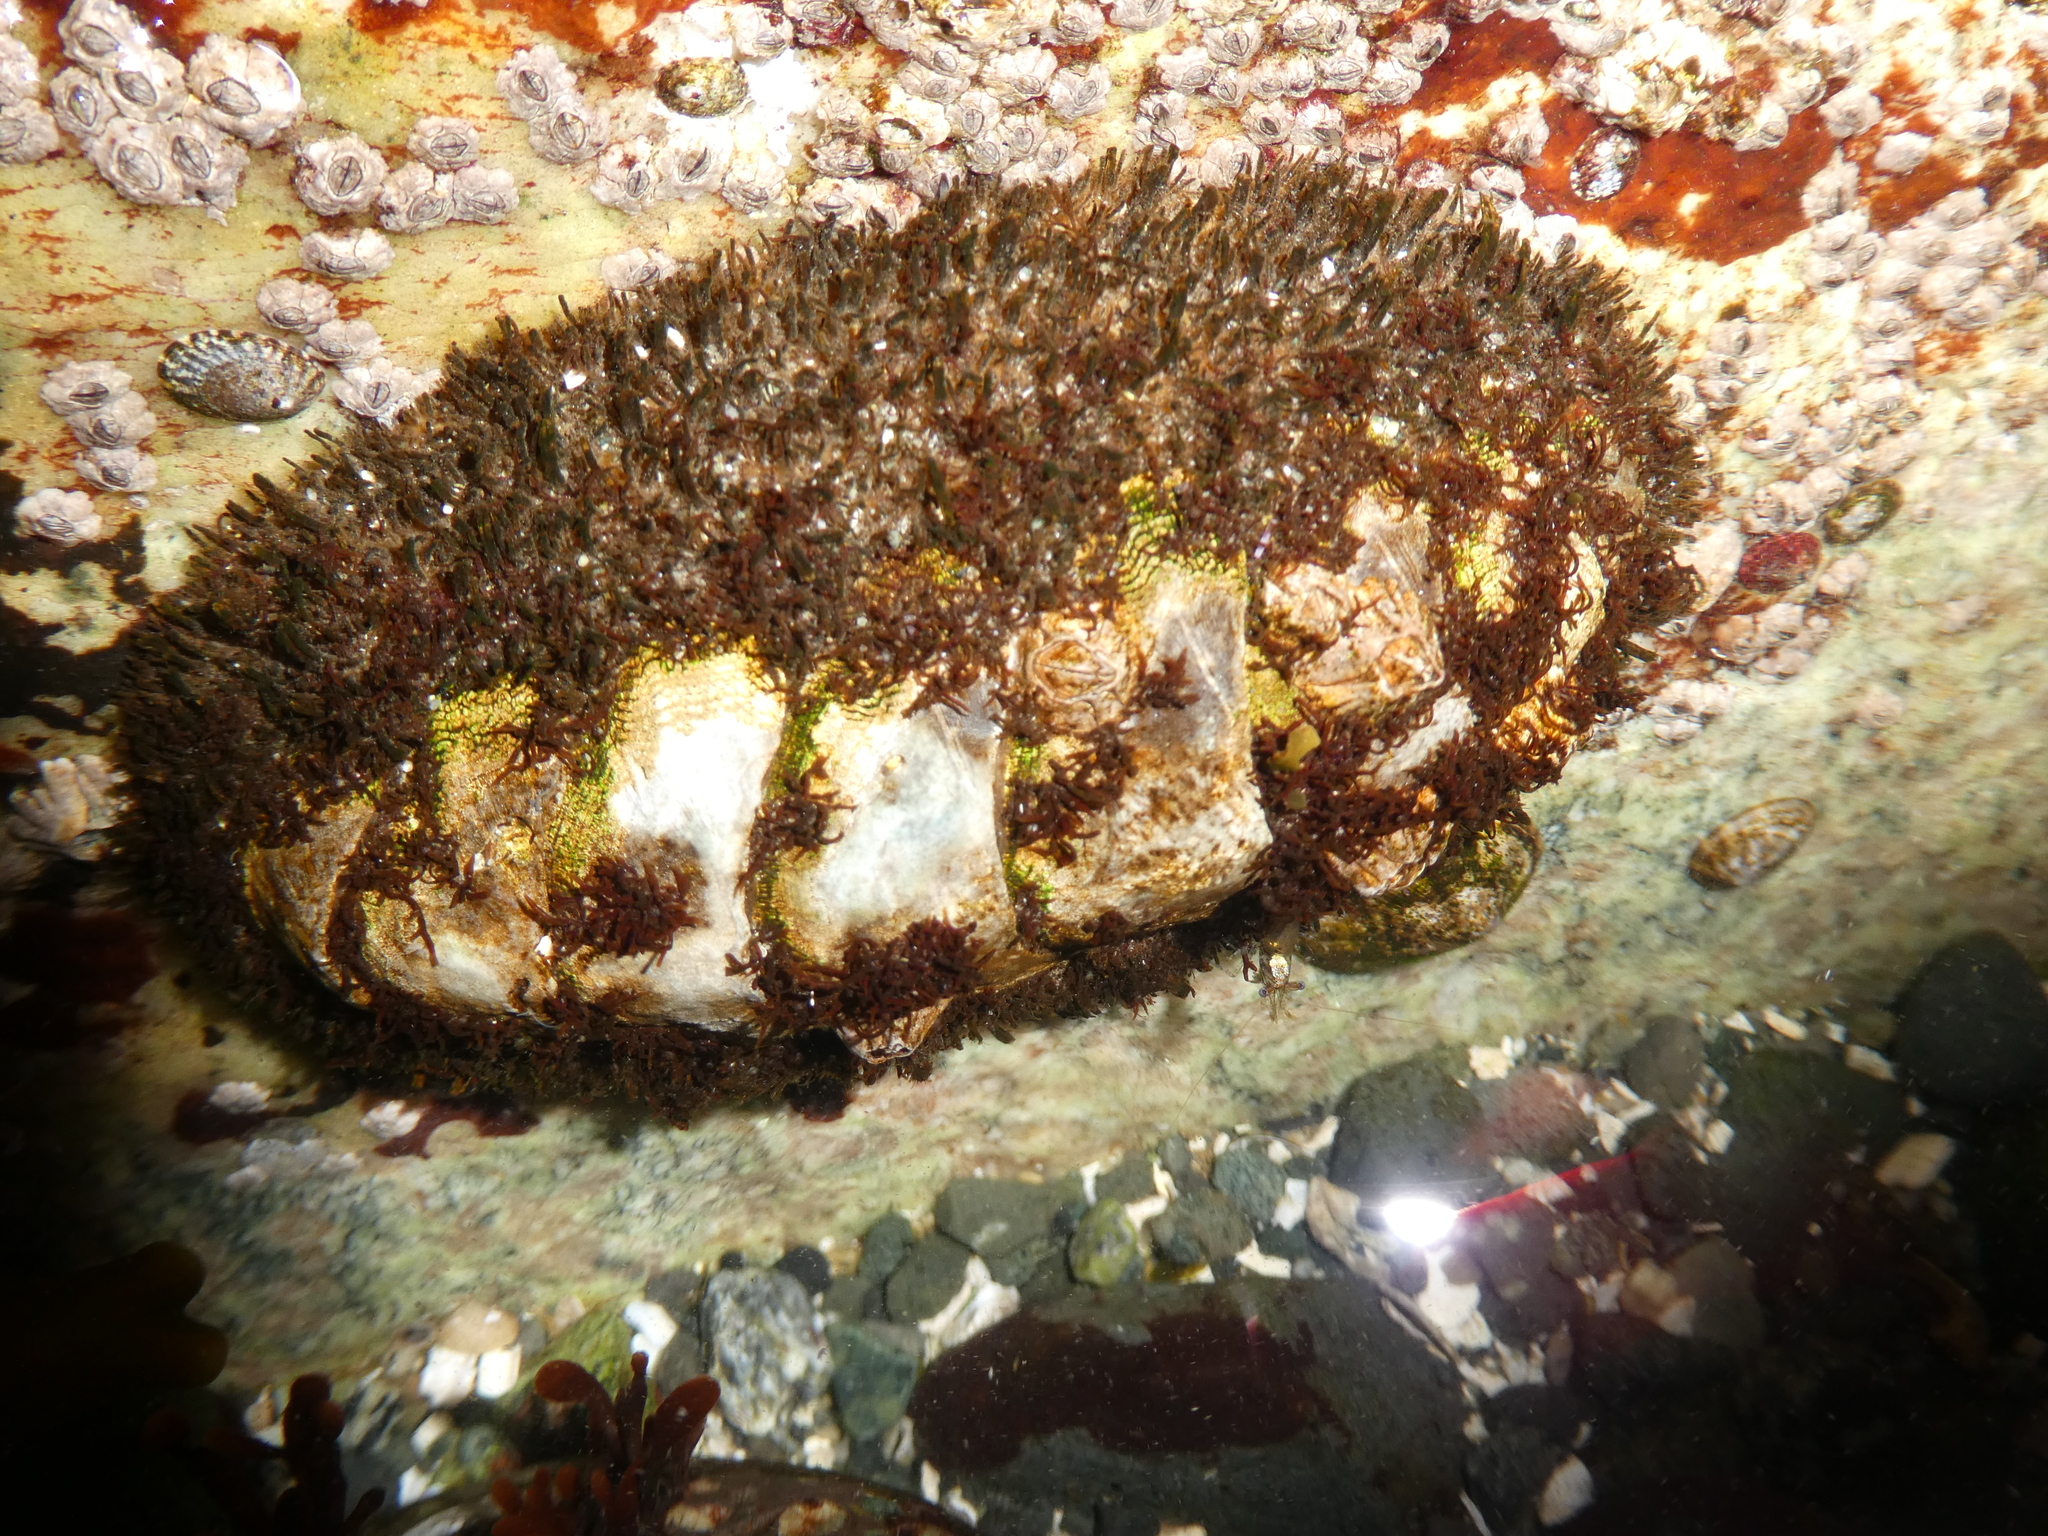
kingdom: Animalia
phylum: Mollusca
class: Polyplacophora
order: Chitonida
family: Mopaliidae
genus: Mopalia
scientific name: Mopalia muscosa
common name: Mossy chiton
